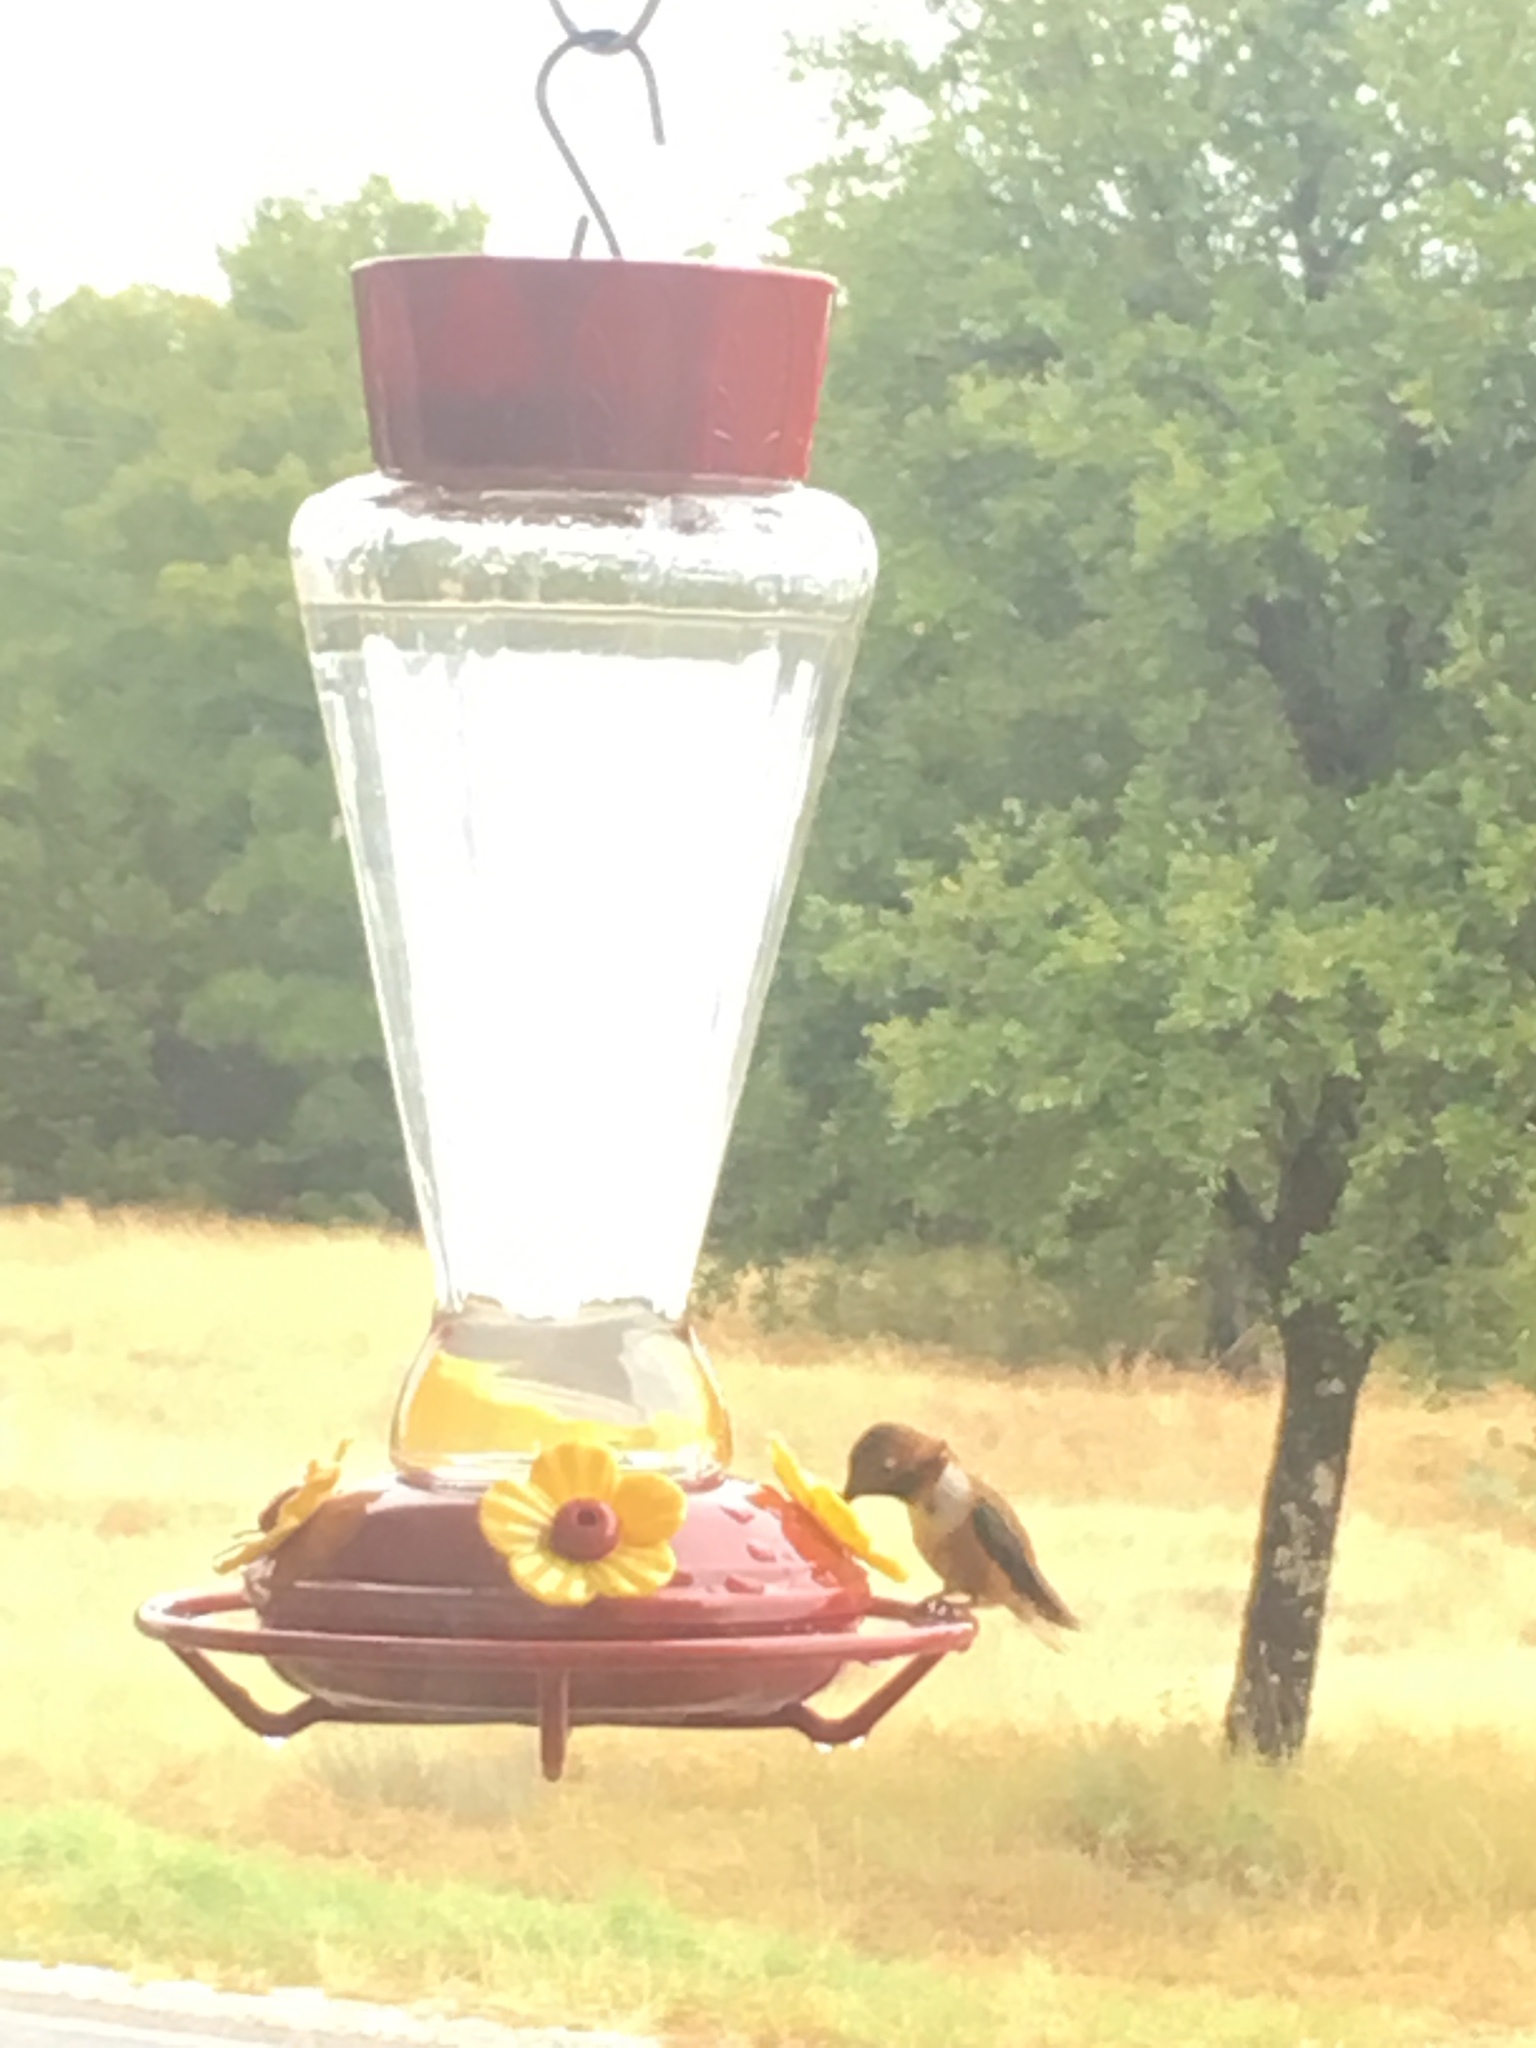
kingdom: Animalia
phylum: Chordata
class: Aves
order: Apodiformes
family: Trochilidae
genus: Selasphorus
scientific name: Selasphorus rufus
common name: Rufous hummingbird
